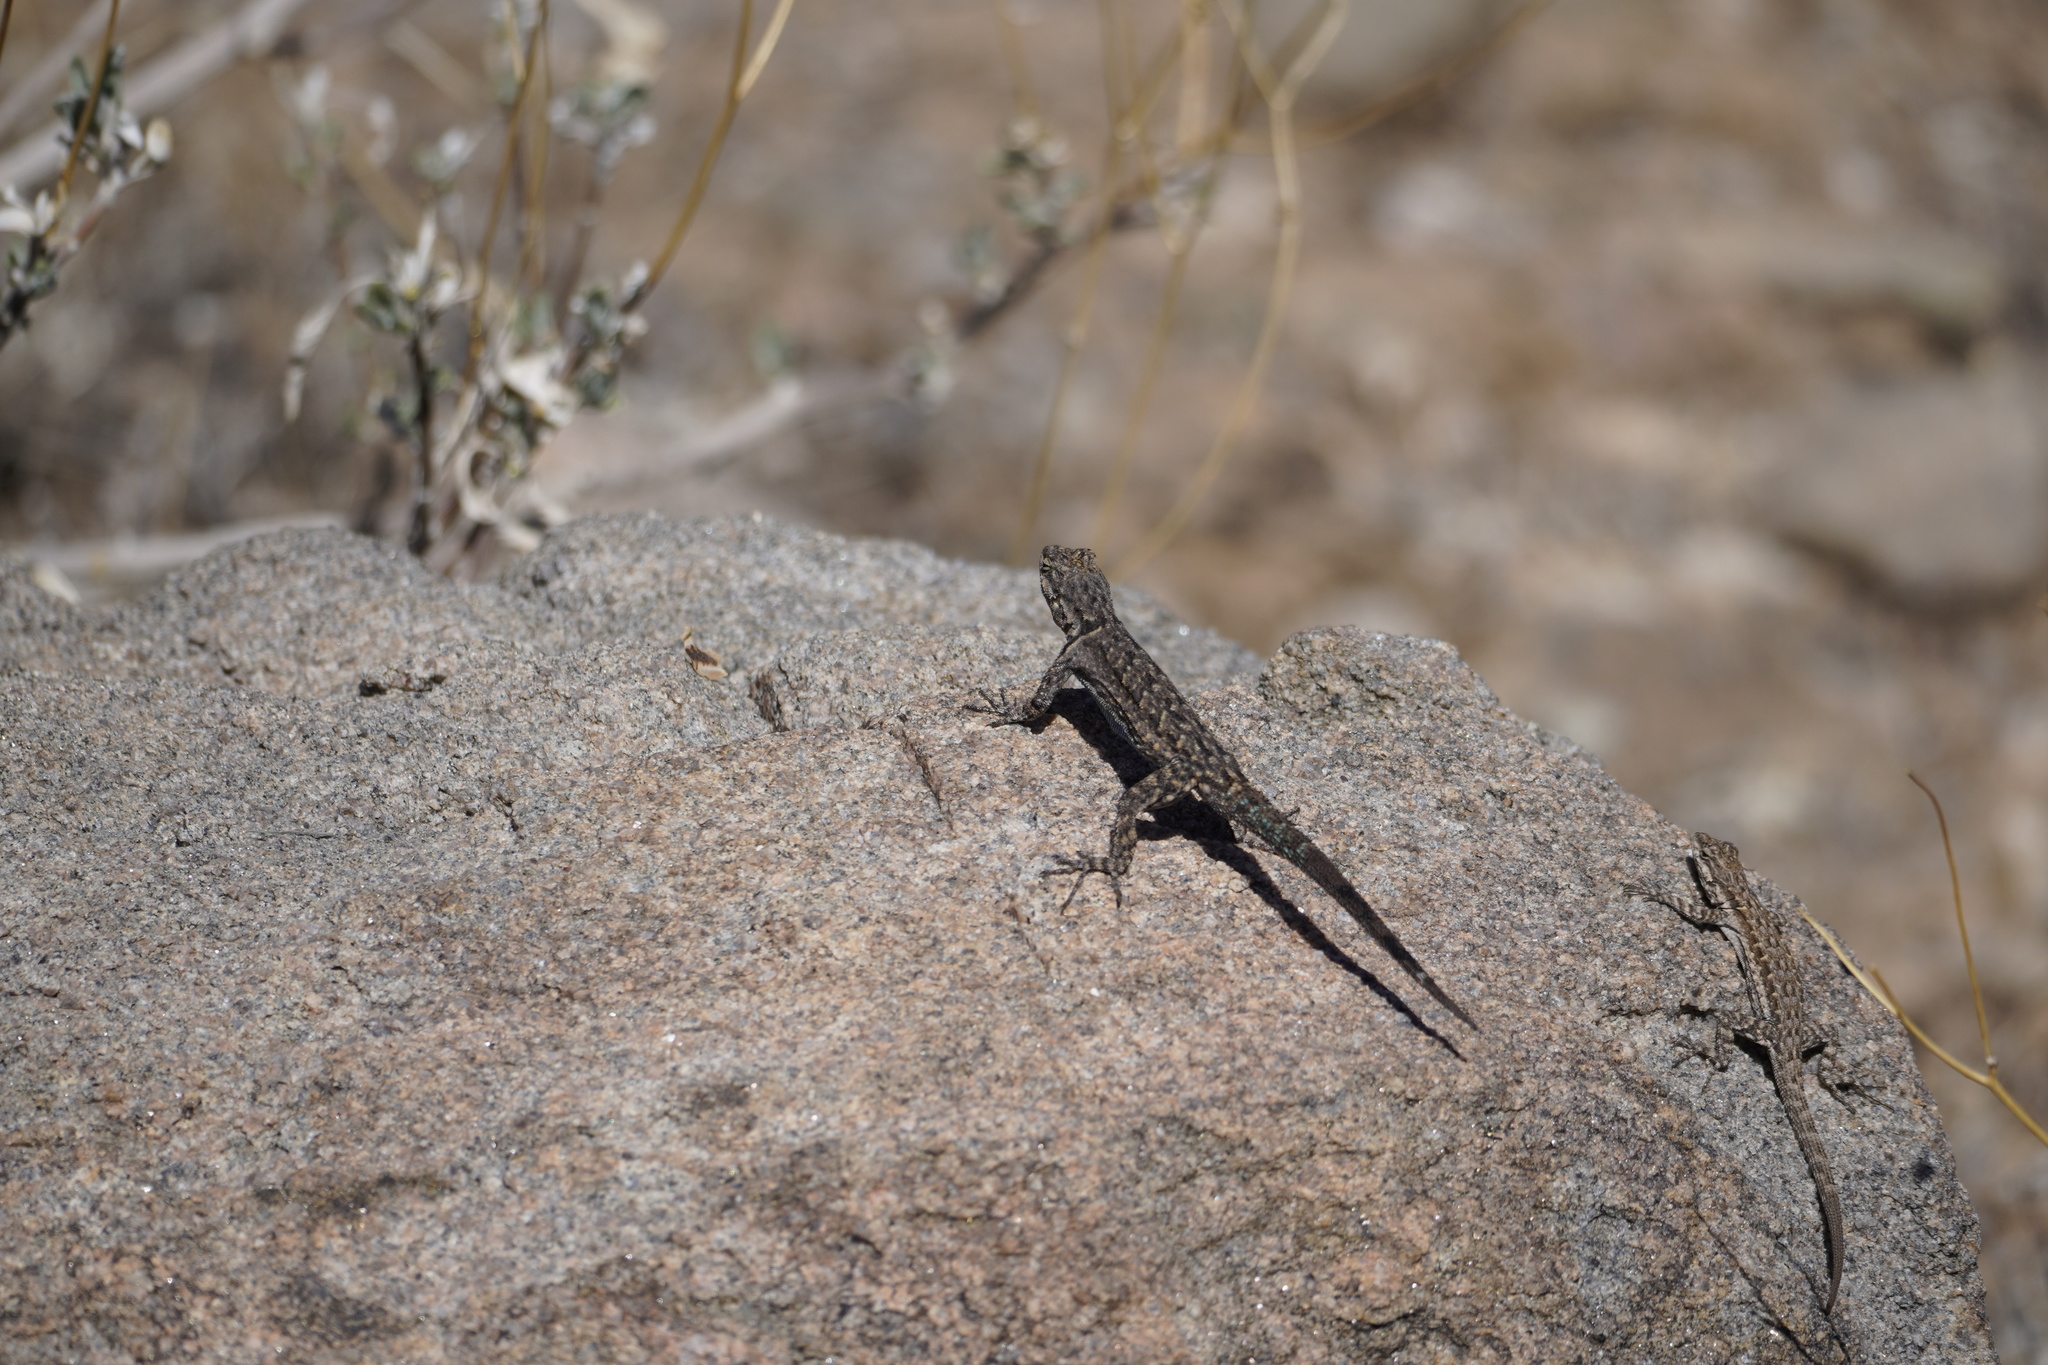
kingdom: Animalia
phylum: Chordata
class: Squamata
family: Phrynosomatidae
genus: Urosaurus
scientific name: Urosaurus ornatus
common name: Ornate tree lizard
